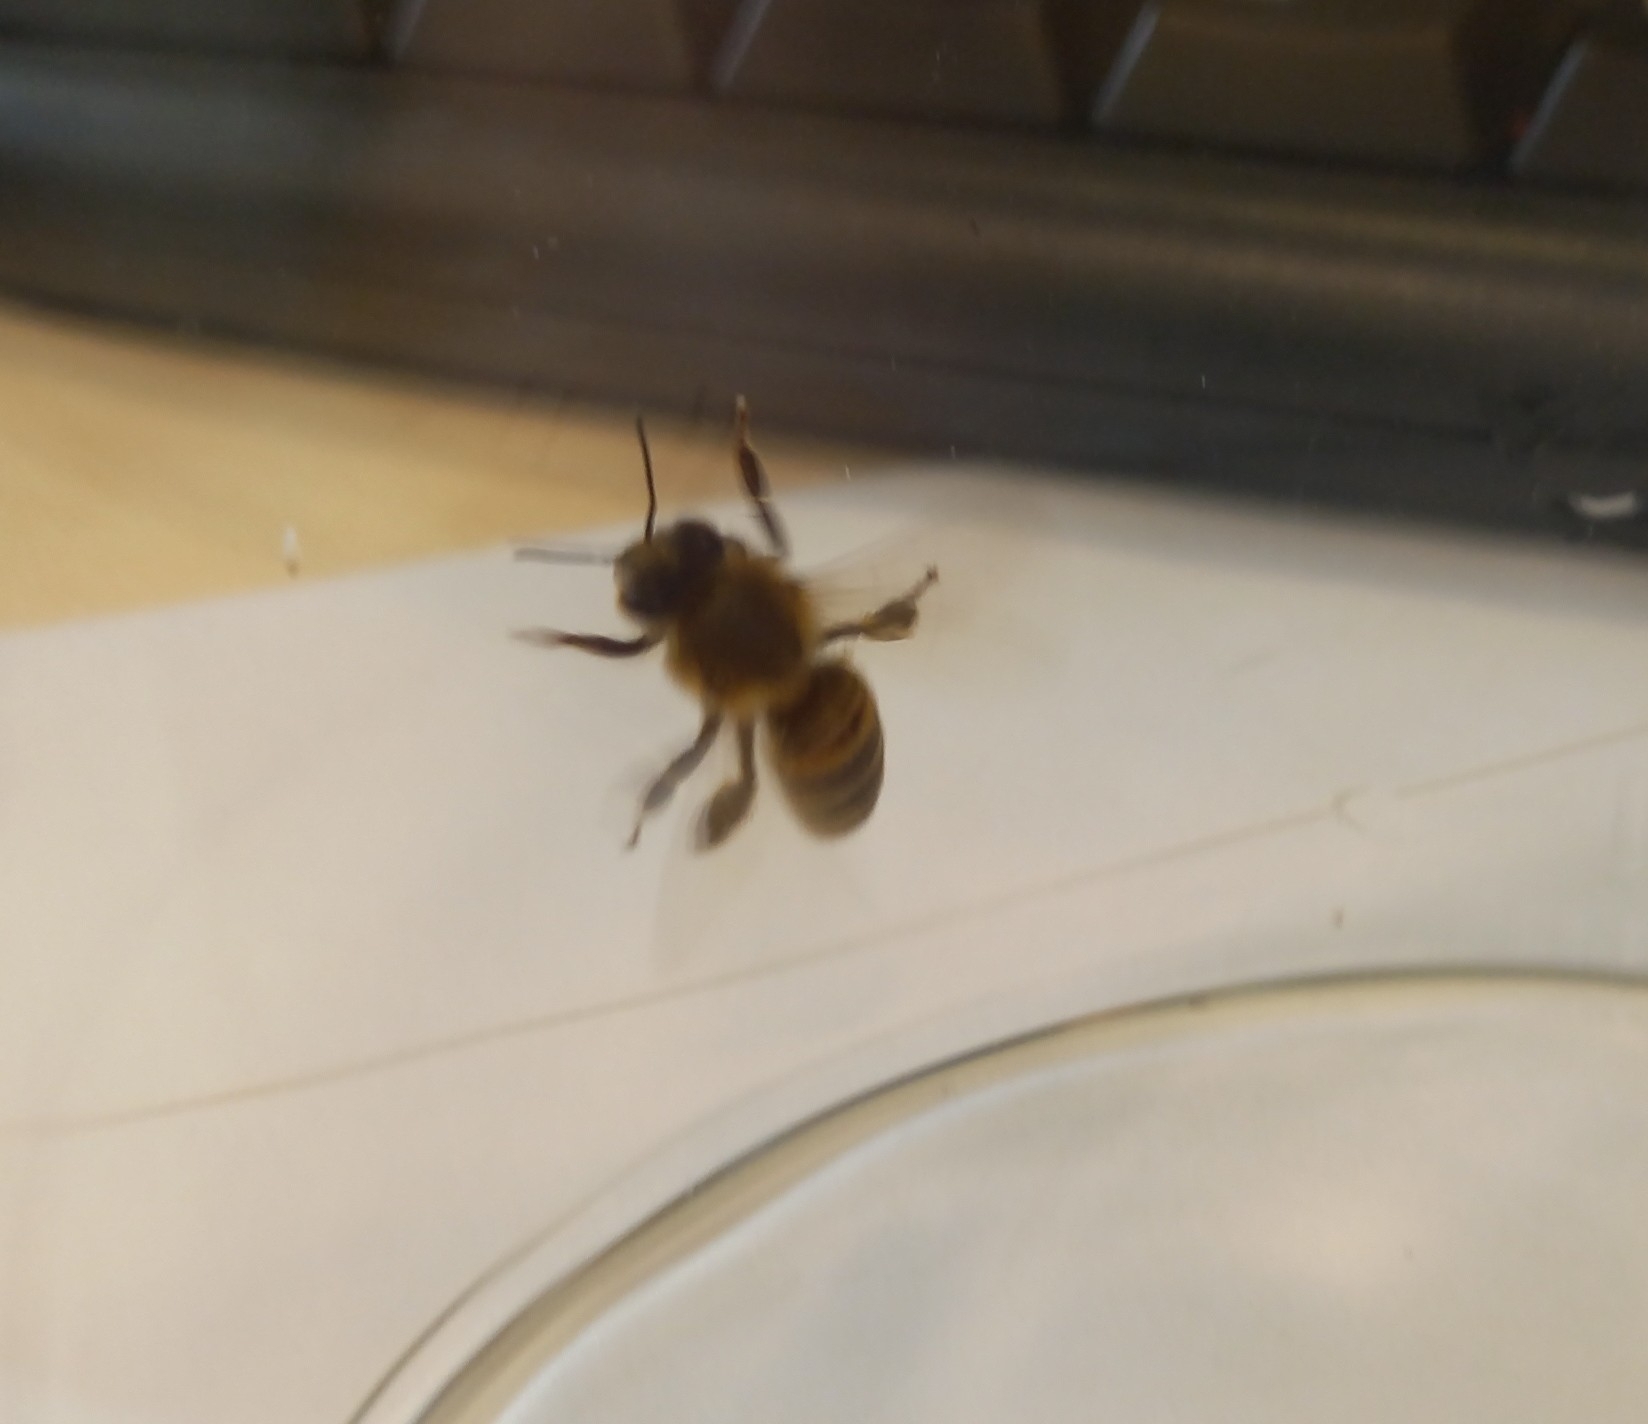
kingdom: Animalia
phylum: Arthropoda
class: Insecta
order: Hymenoptera
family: Apidae
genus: Apis
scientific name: Apis mellifera
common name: Honey bee
